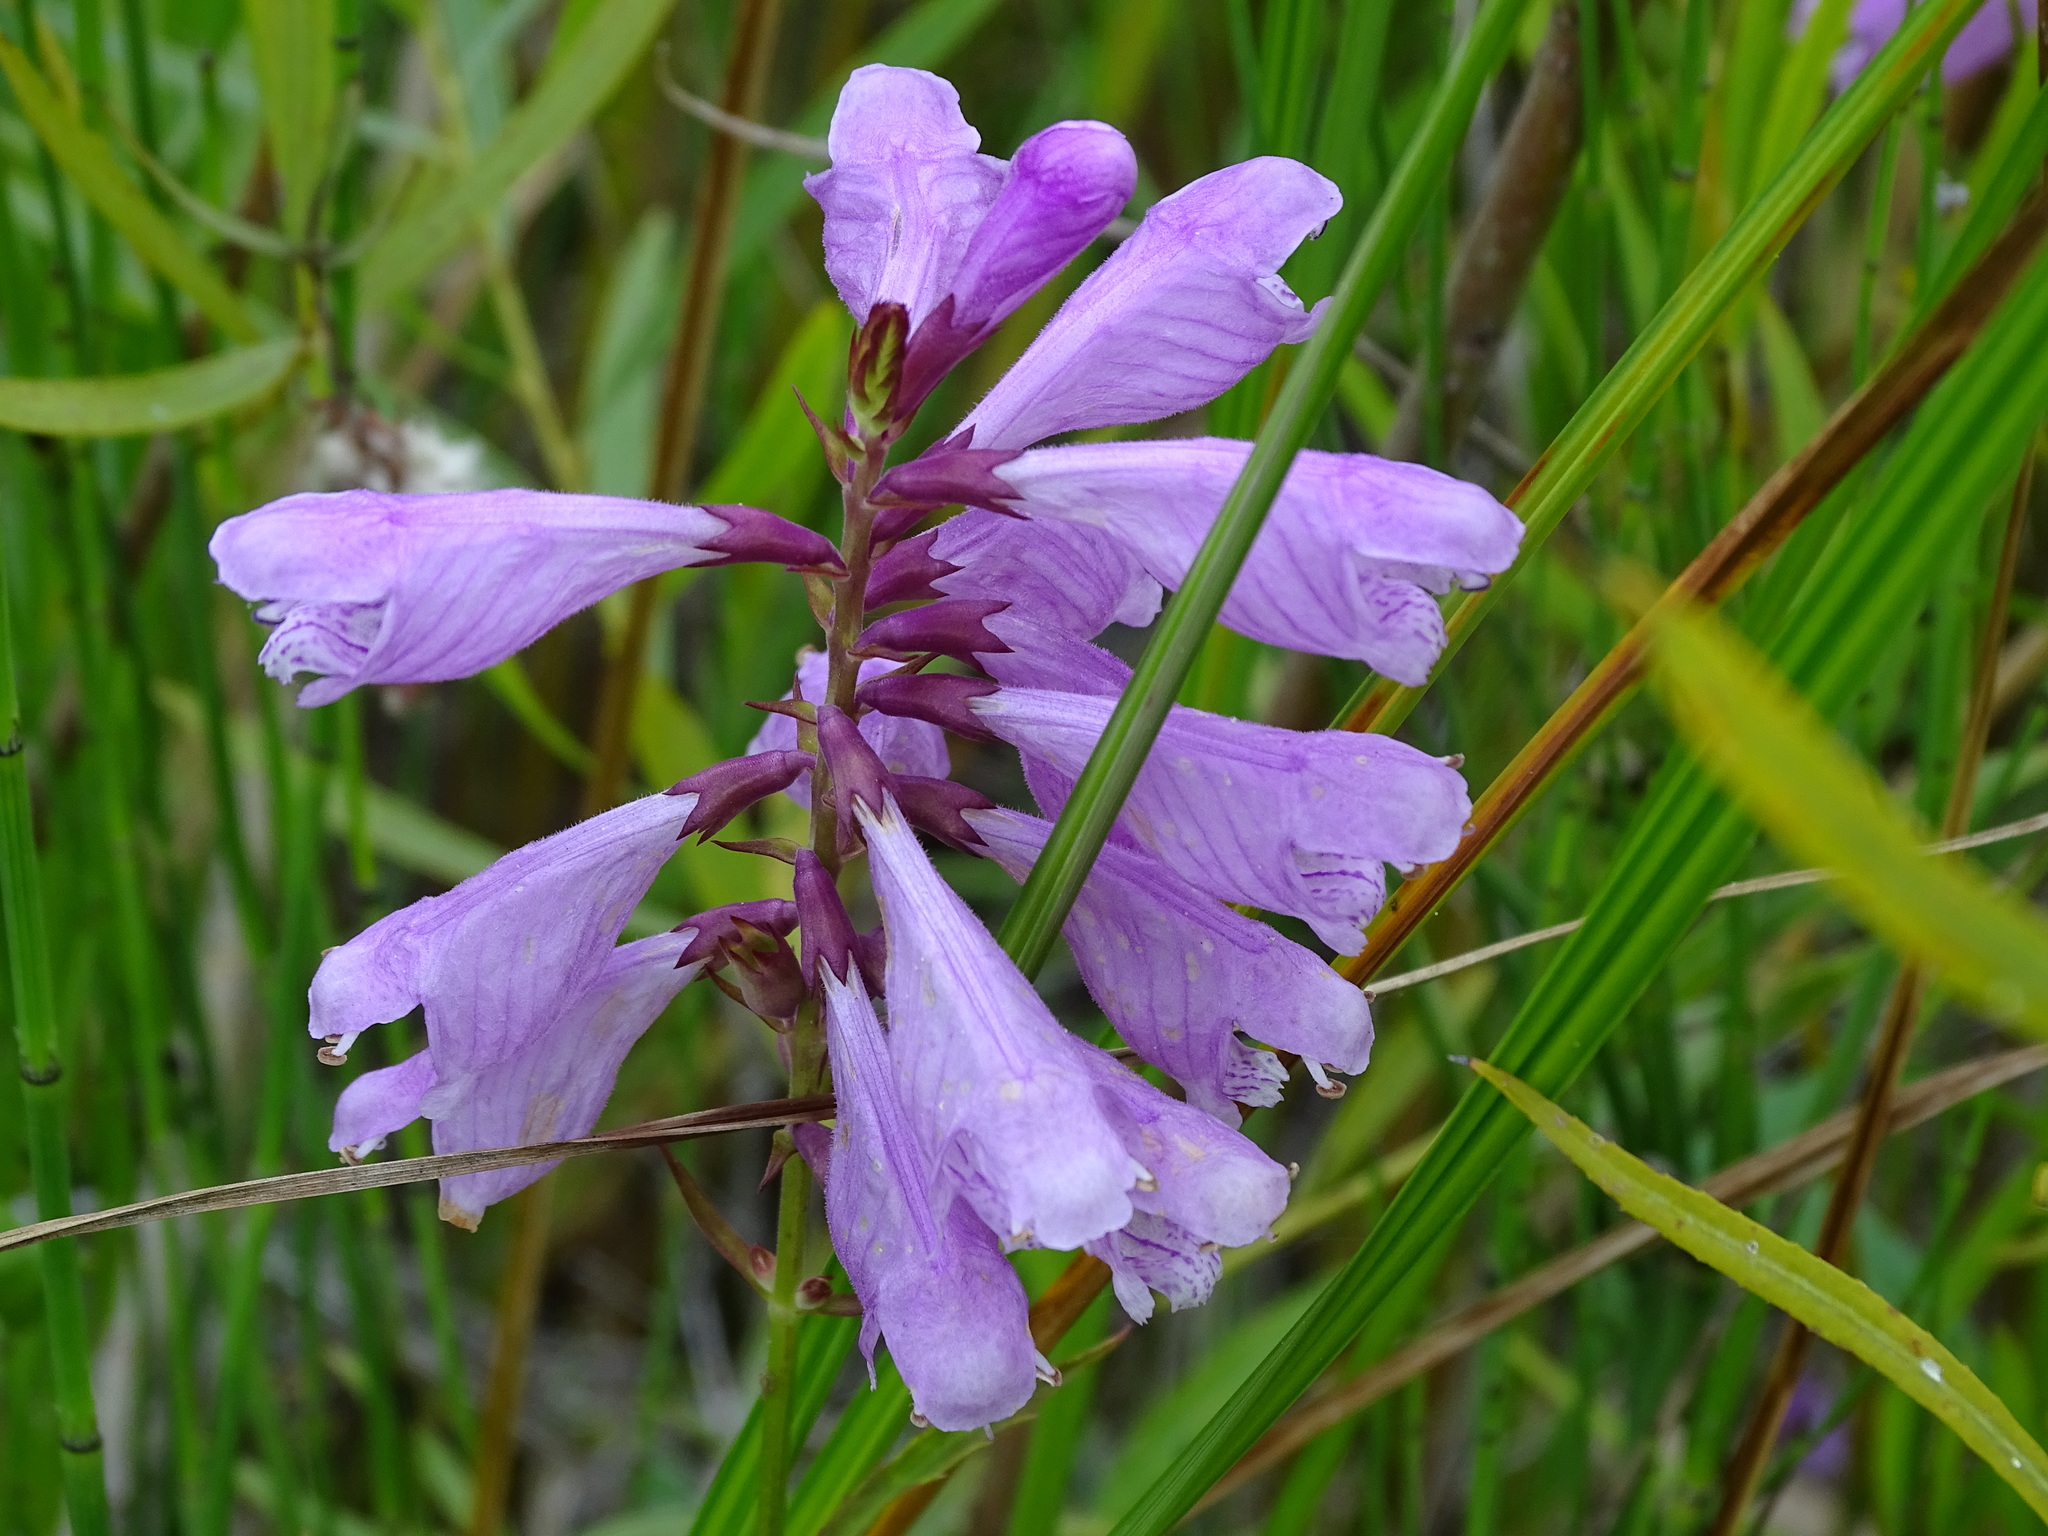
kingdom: Plantae
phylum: Tracheophyta
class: Magnoliopsida
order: Lamiales
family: Lamiaceae
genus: Physostegia
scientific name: Physostegia virginiana
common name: Obedient-plant
